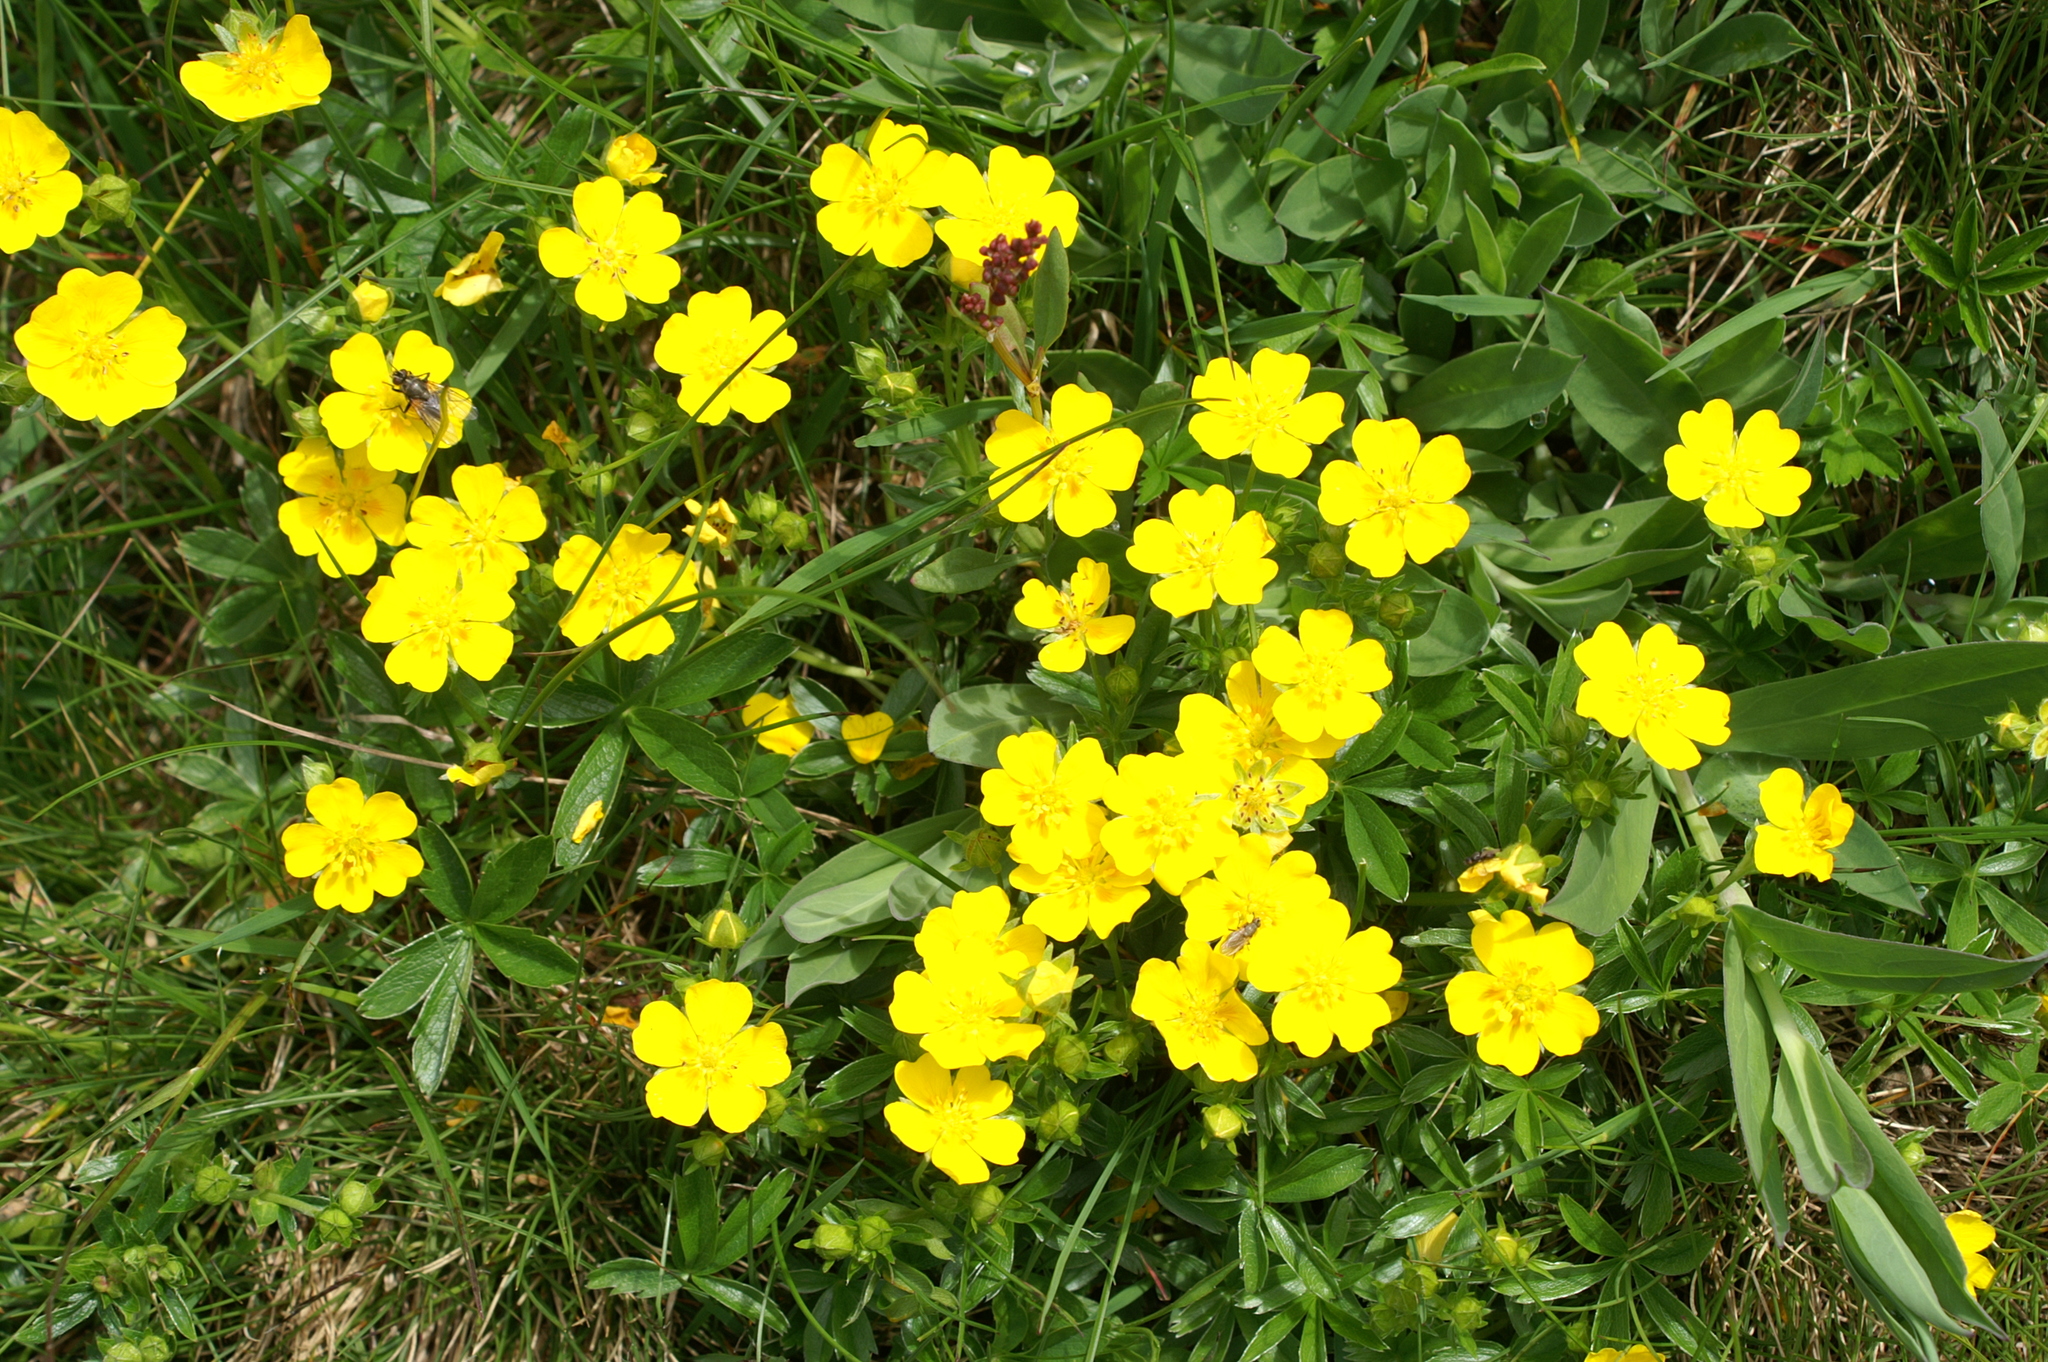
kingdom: Plantae
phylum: Tracheophyta
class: Magnoliopsida
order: Rosales
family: Rosaceae
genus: Potentilla
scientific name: Potentilla aurea
